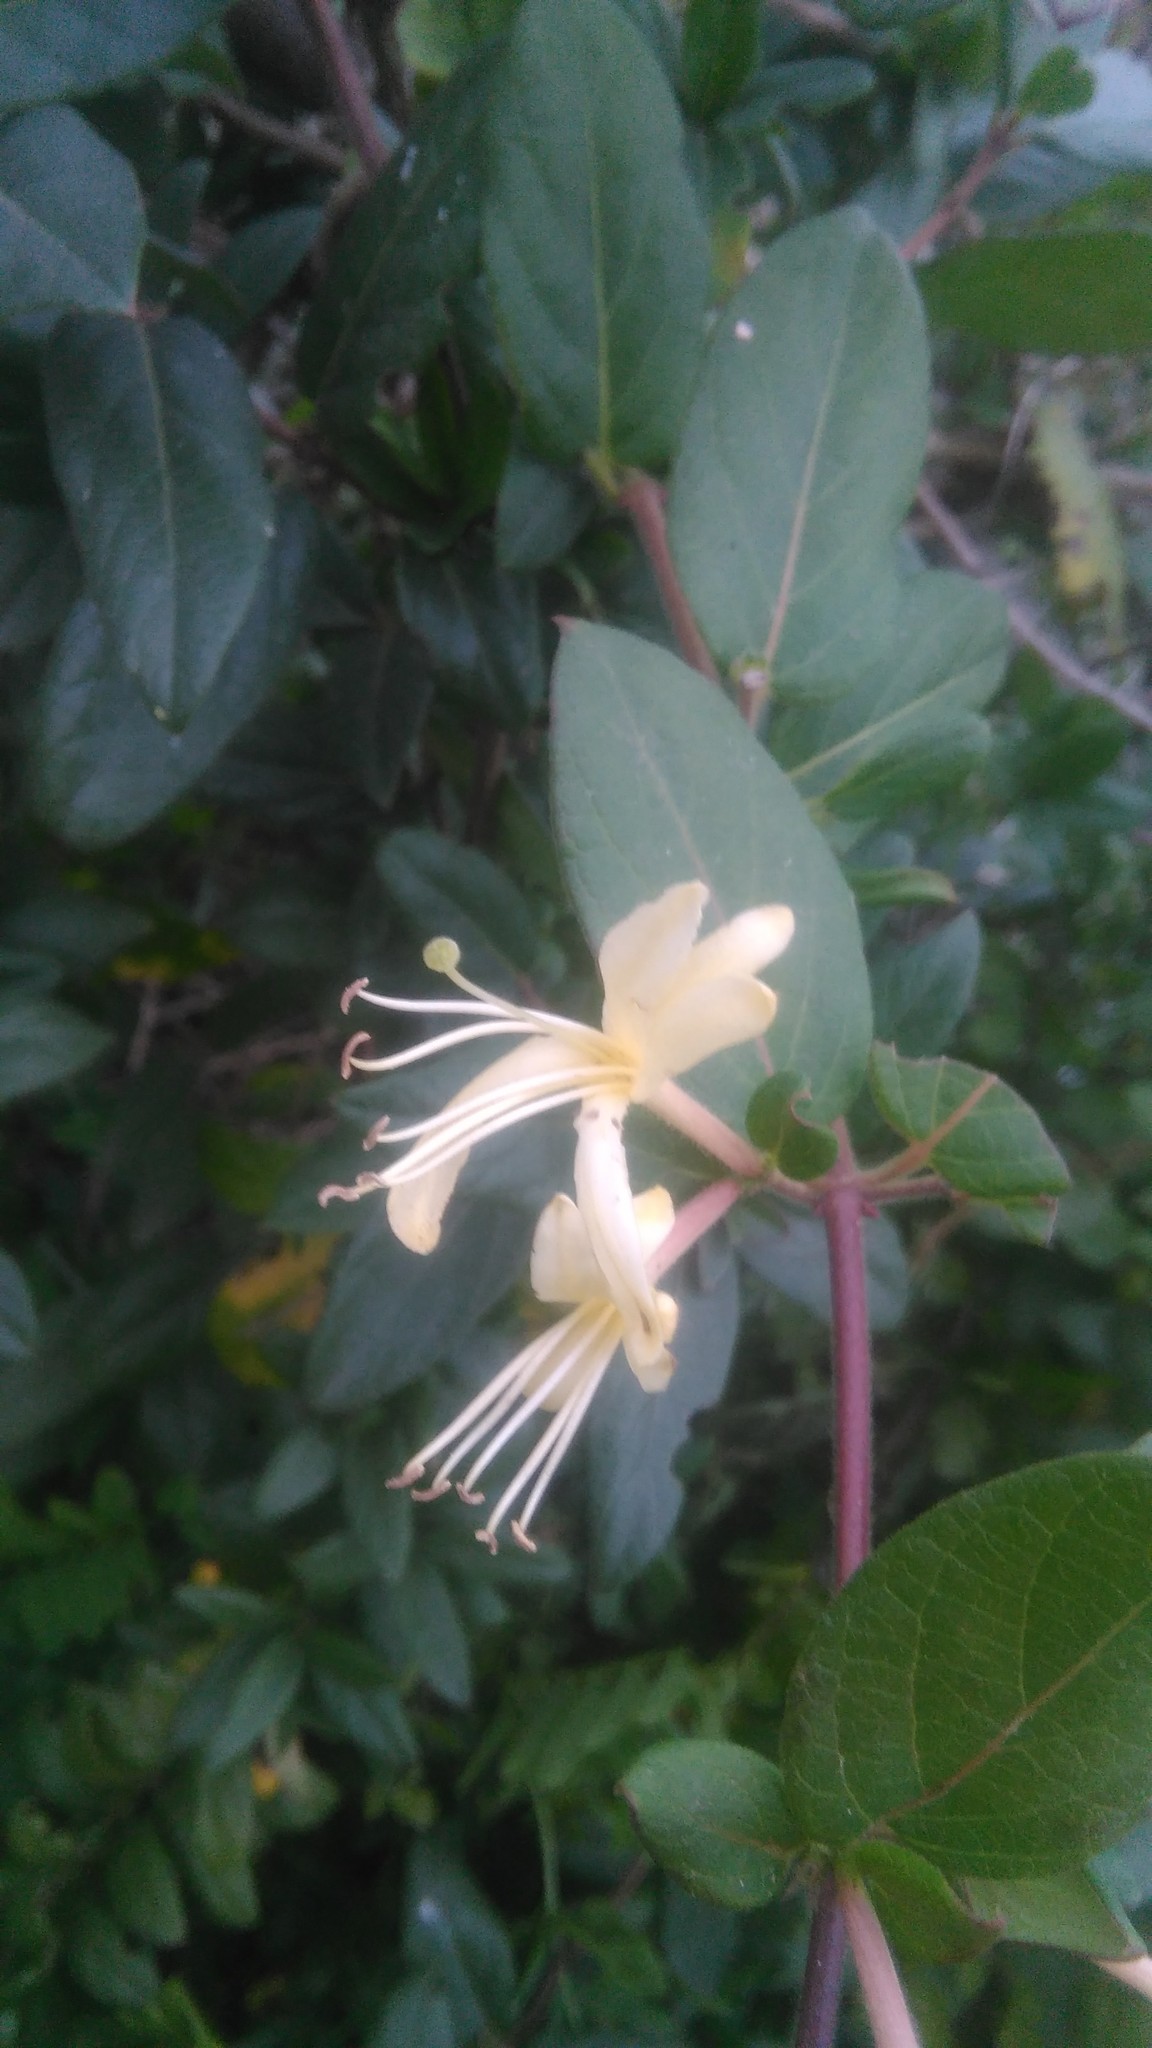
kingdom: Plantae
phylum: Tracheophyta
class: Magnoliopsida
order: Dipsacales
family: Caprifoliaceae
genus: Lonicera
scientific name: Lonicera japonica
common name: Japanese honeysuckle
